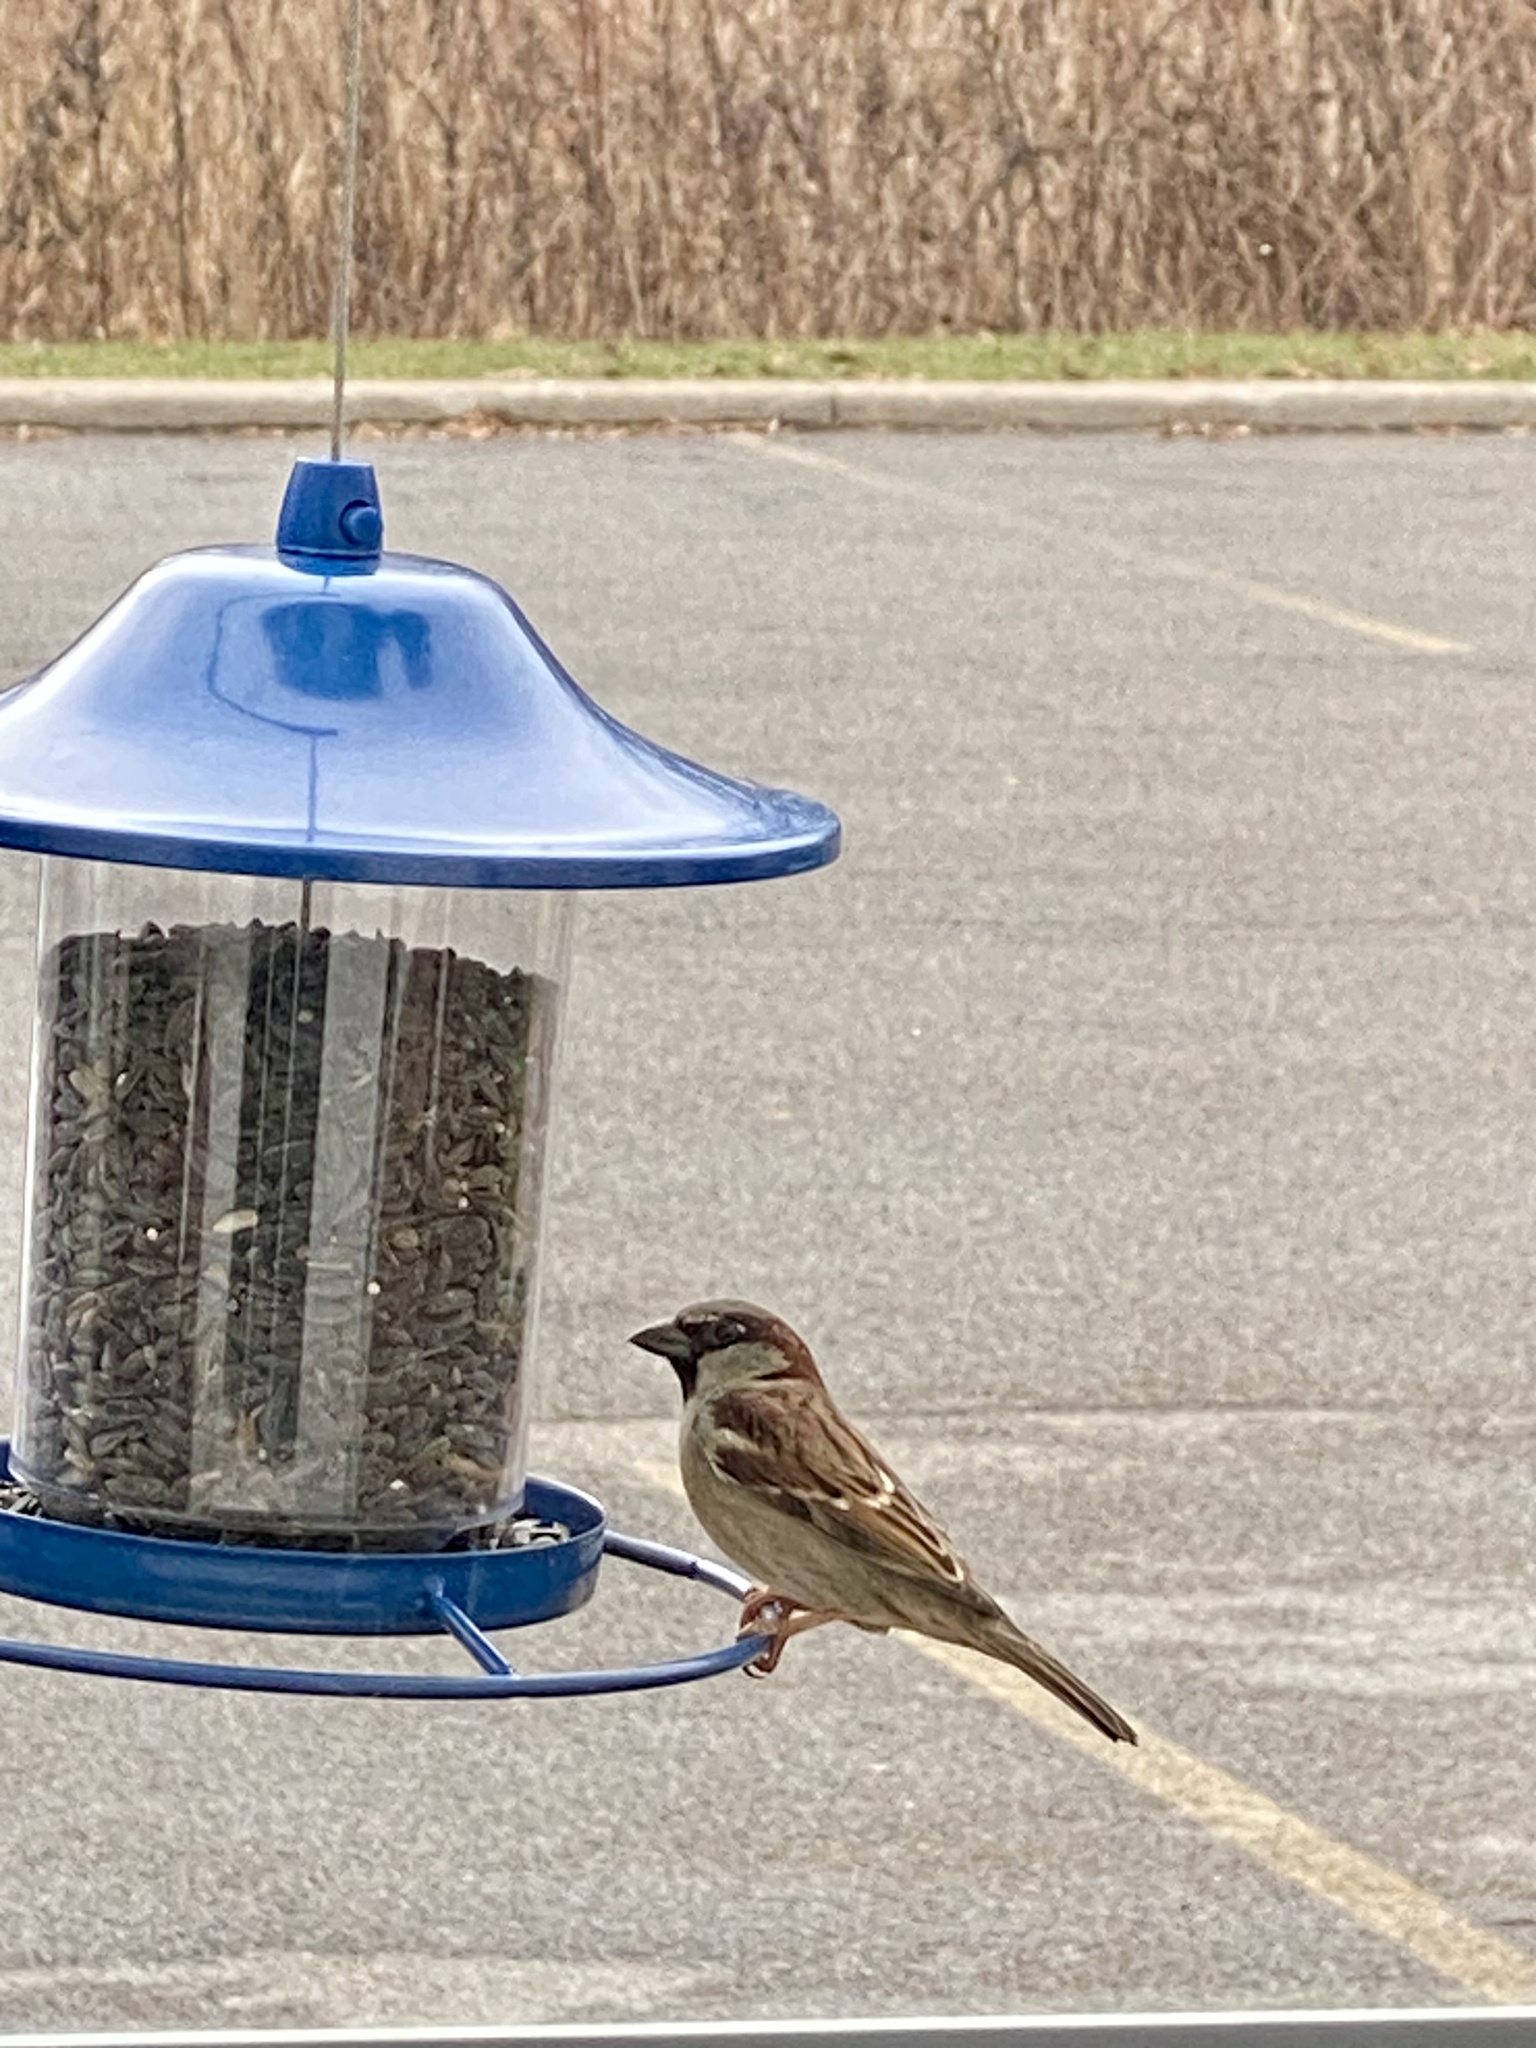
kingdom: Animalia
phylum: Chordata
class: Aves
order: Passeriformes
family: Passeridae
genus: Passer
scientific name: Passer domesticus
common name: House sparrow
